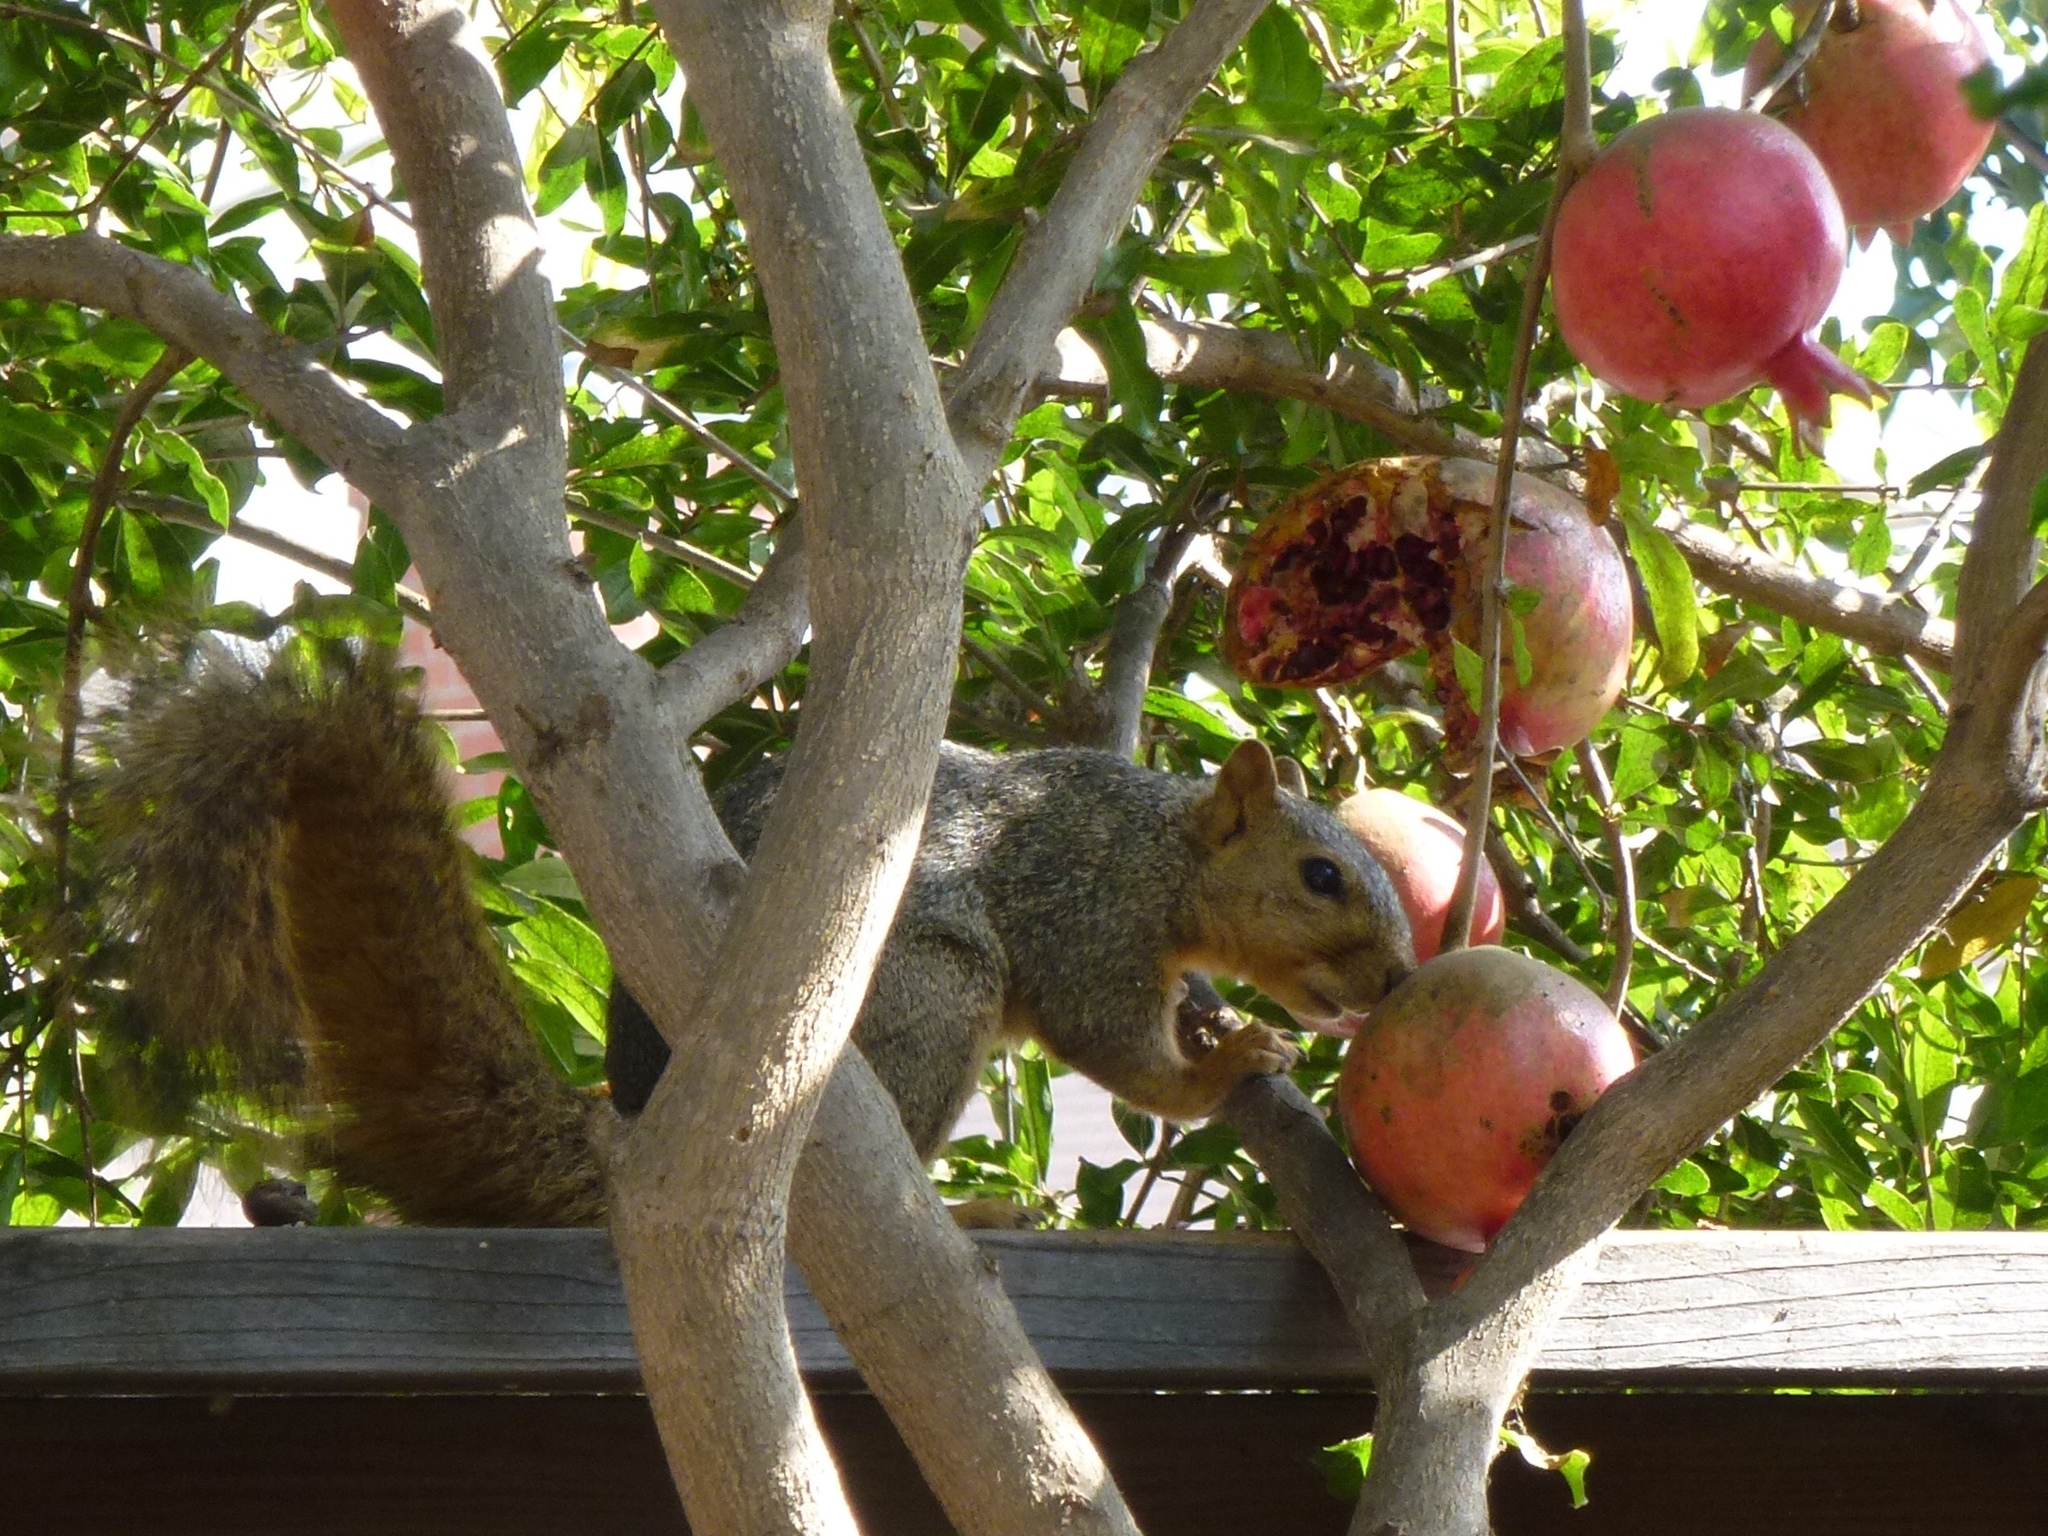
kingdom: Animalia
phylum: Chordata
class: Mammalia
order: Rodentia
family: Sciuridae
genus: Sciurus
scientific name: Sciurus niger
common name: Fox squirrel
